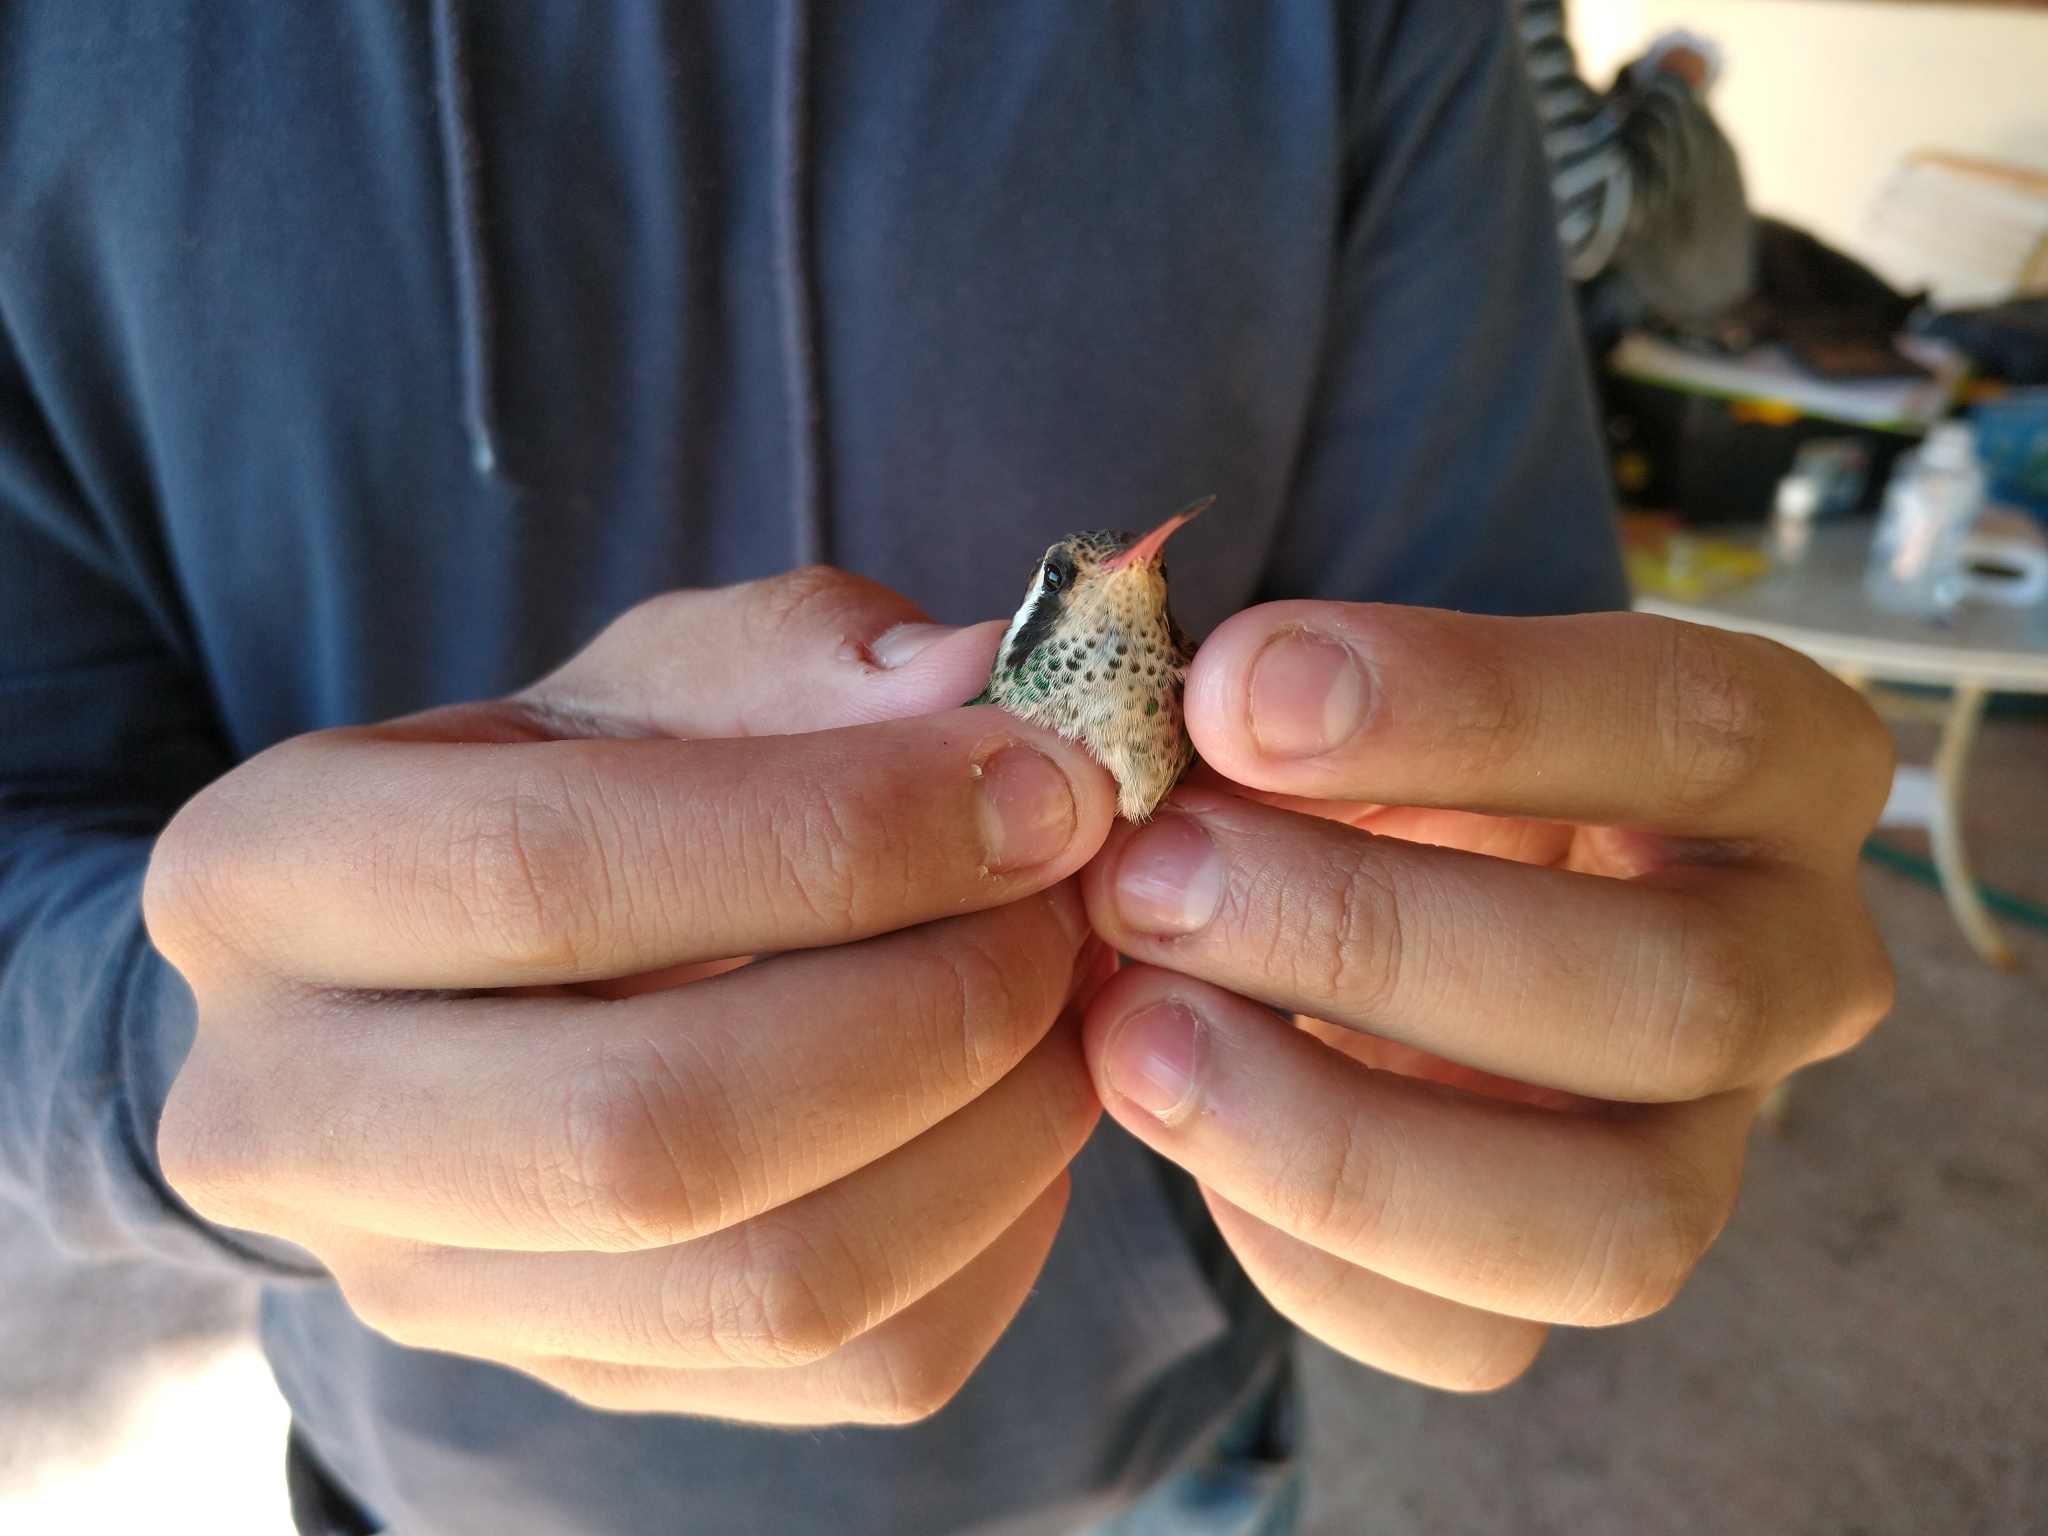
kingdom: Animalia
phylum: Chordata
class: Aves
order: Apodiformes
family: Trochilidae
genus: Basilinna
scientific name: Basilinna leucotis
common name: White-eared hummingbird
